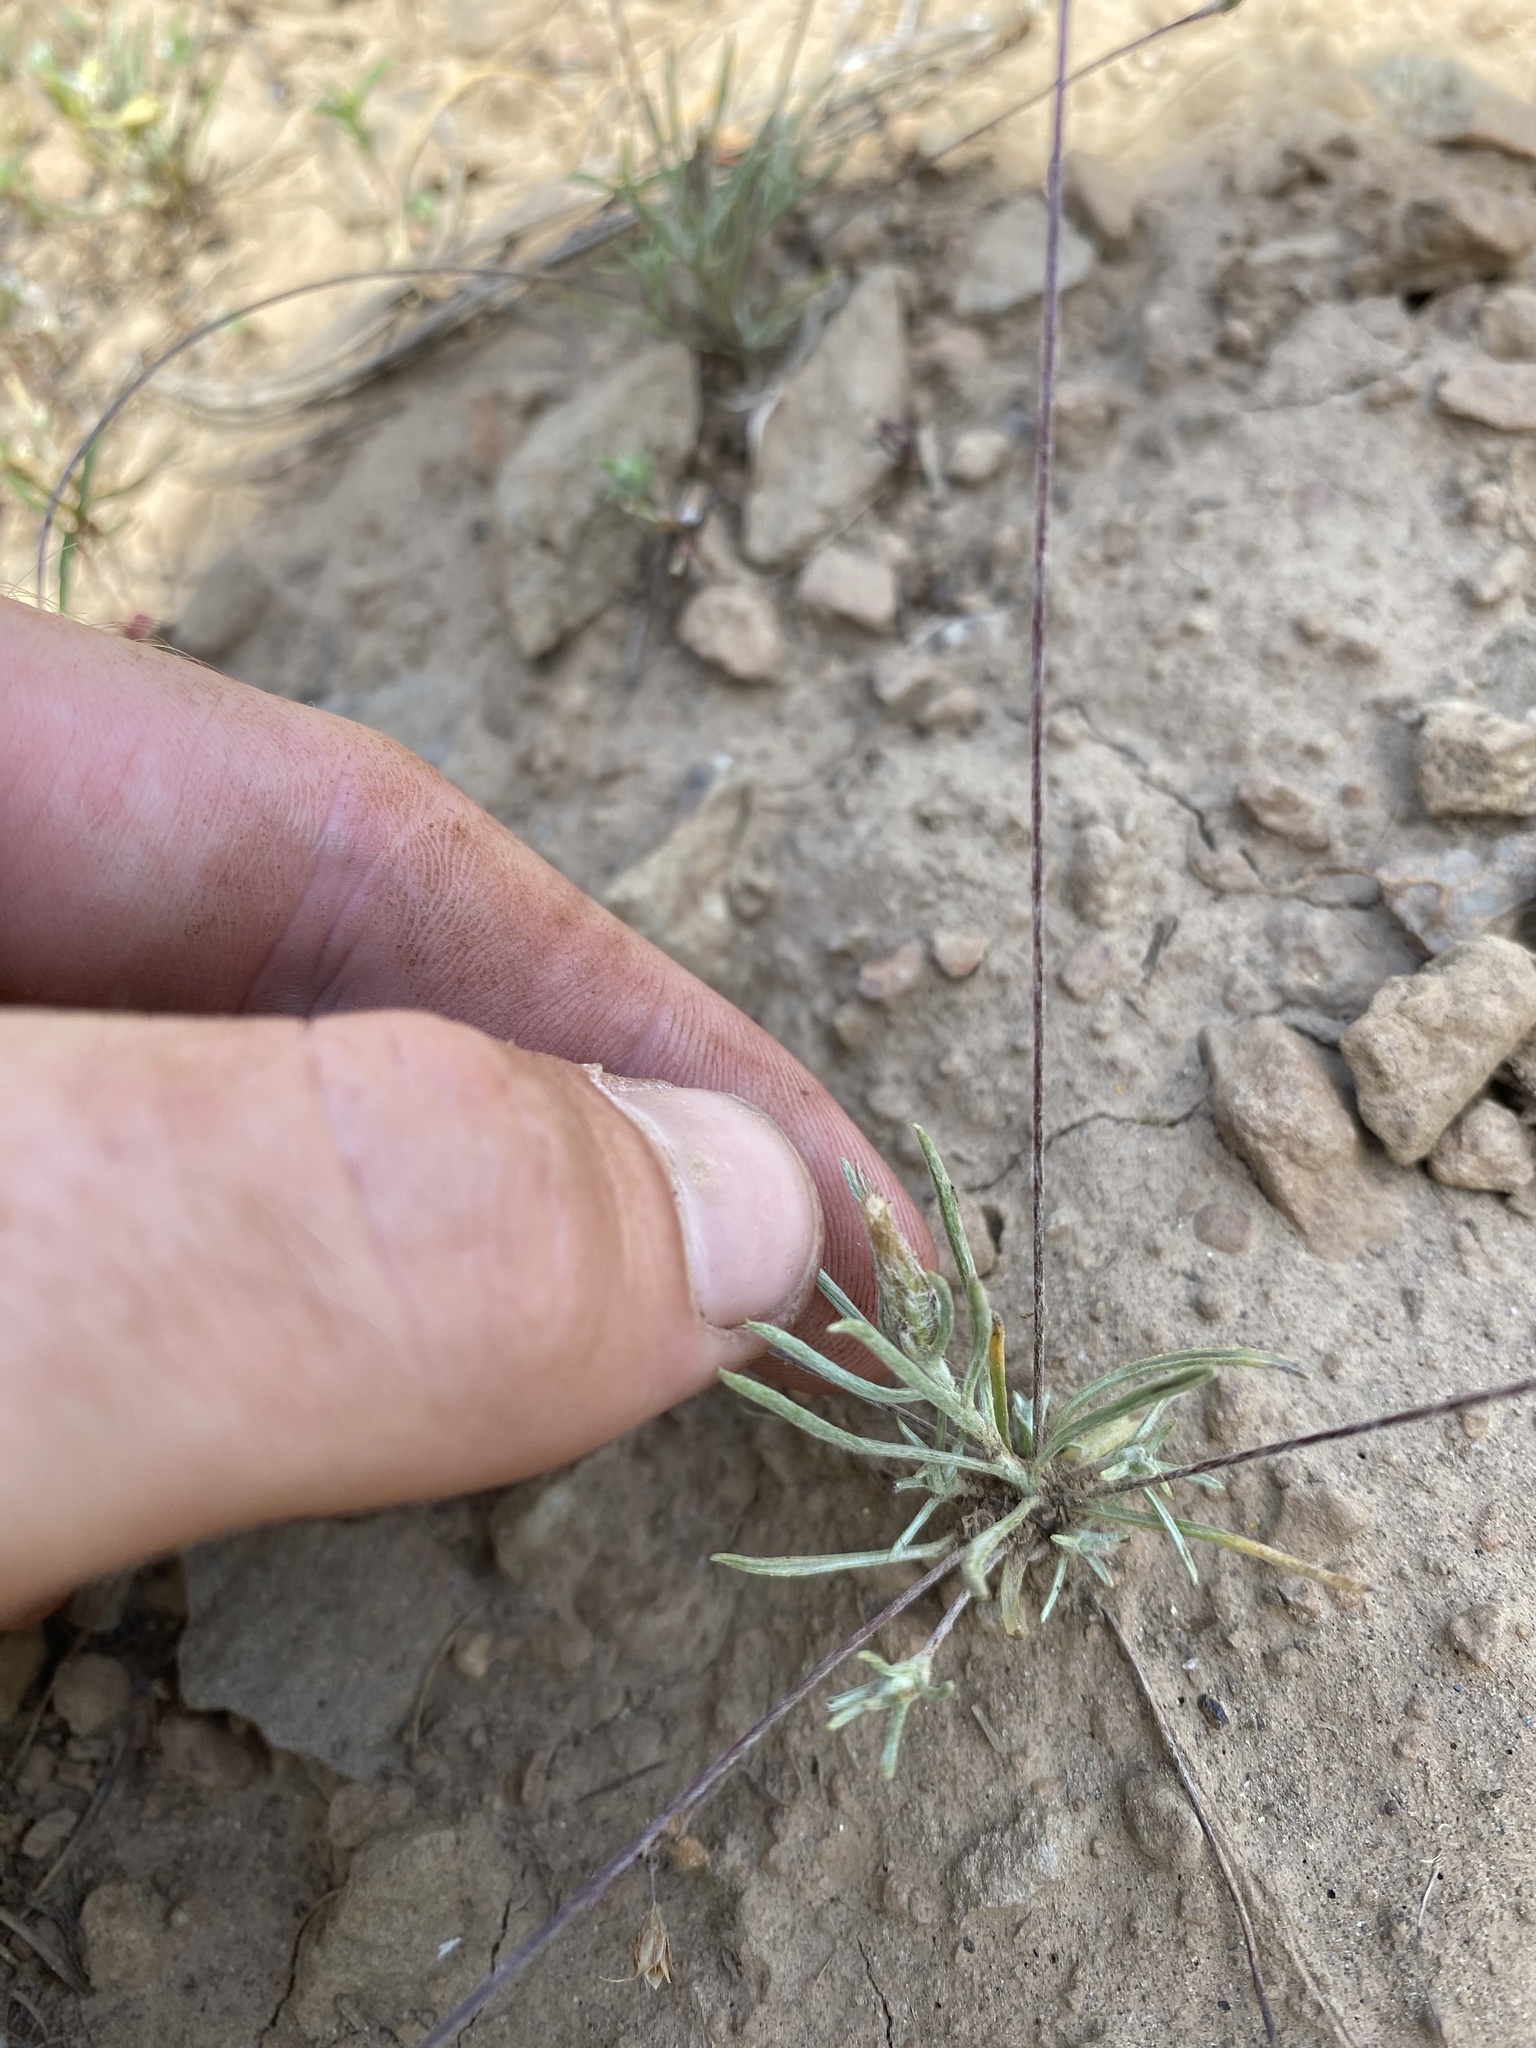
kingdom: Plantae
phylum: Tracheophyta
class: Magnoliopsida
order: Asterales
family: Asteraceae
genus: Antennaria
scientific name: Antennaria flagellaris
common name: Whip pussytoes
